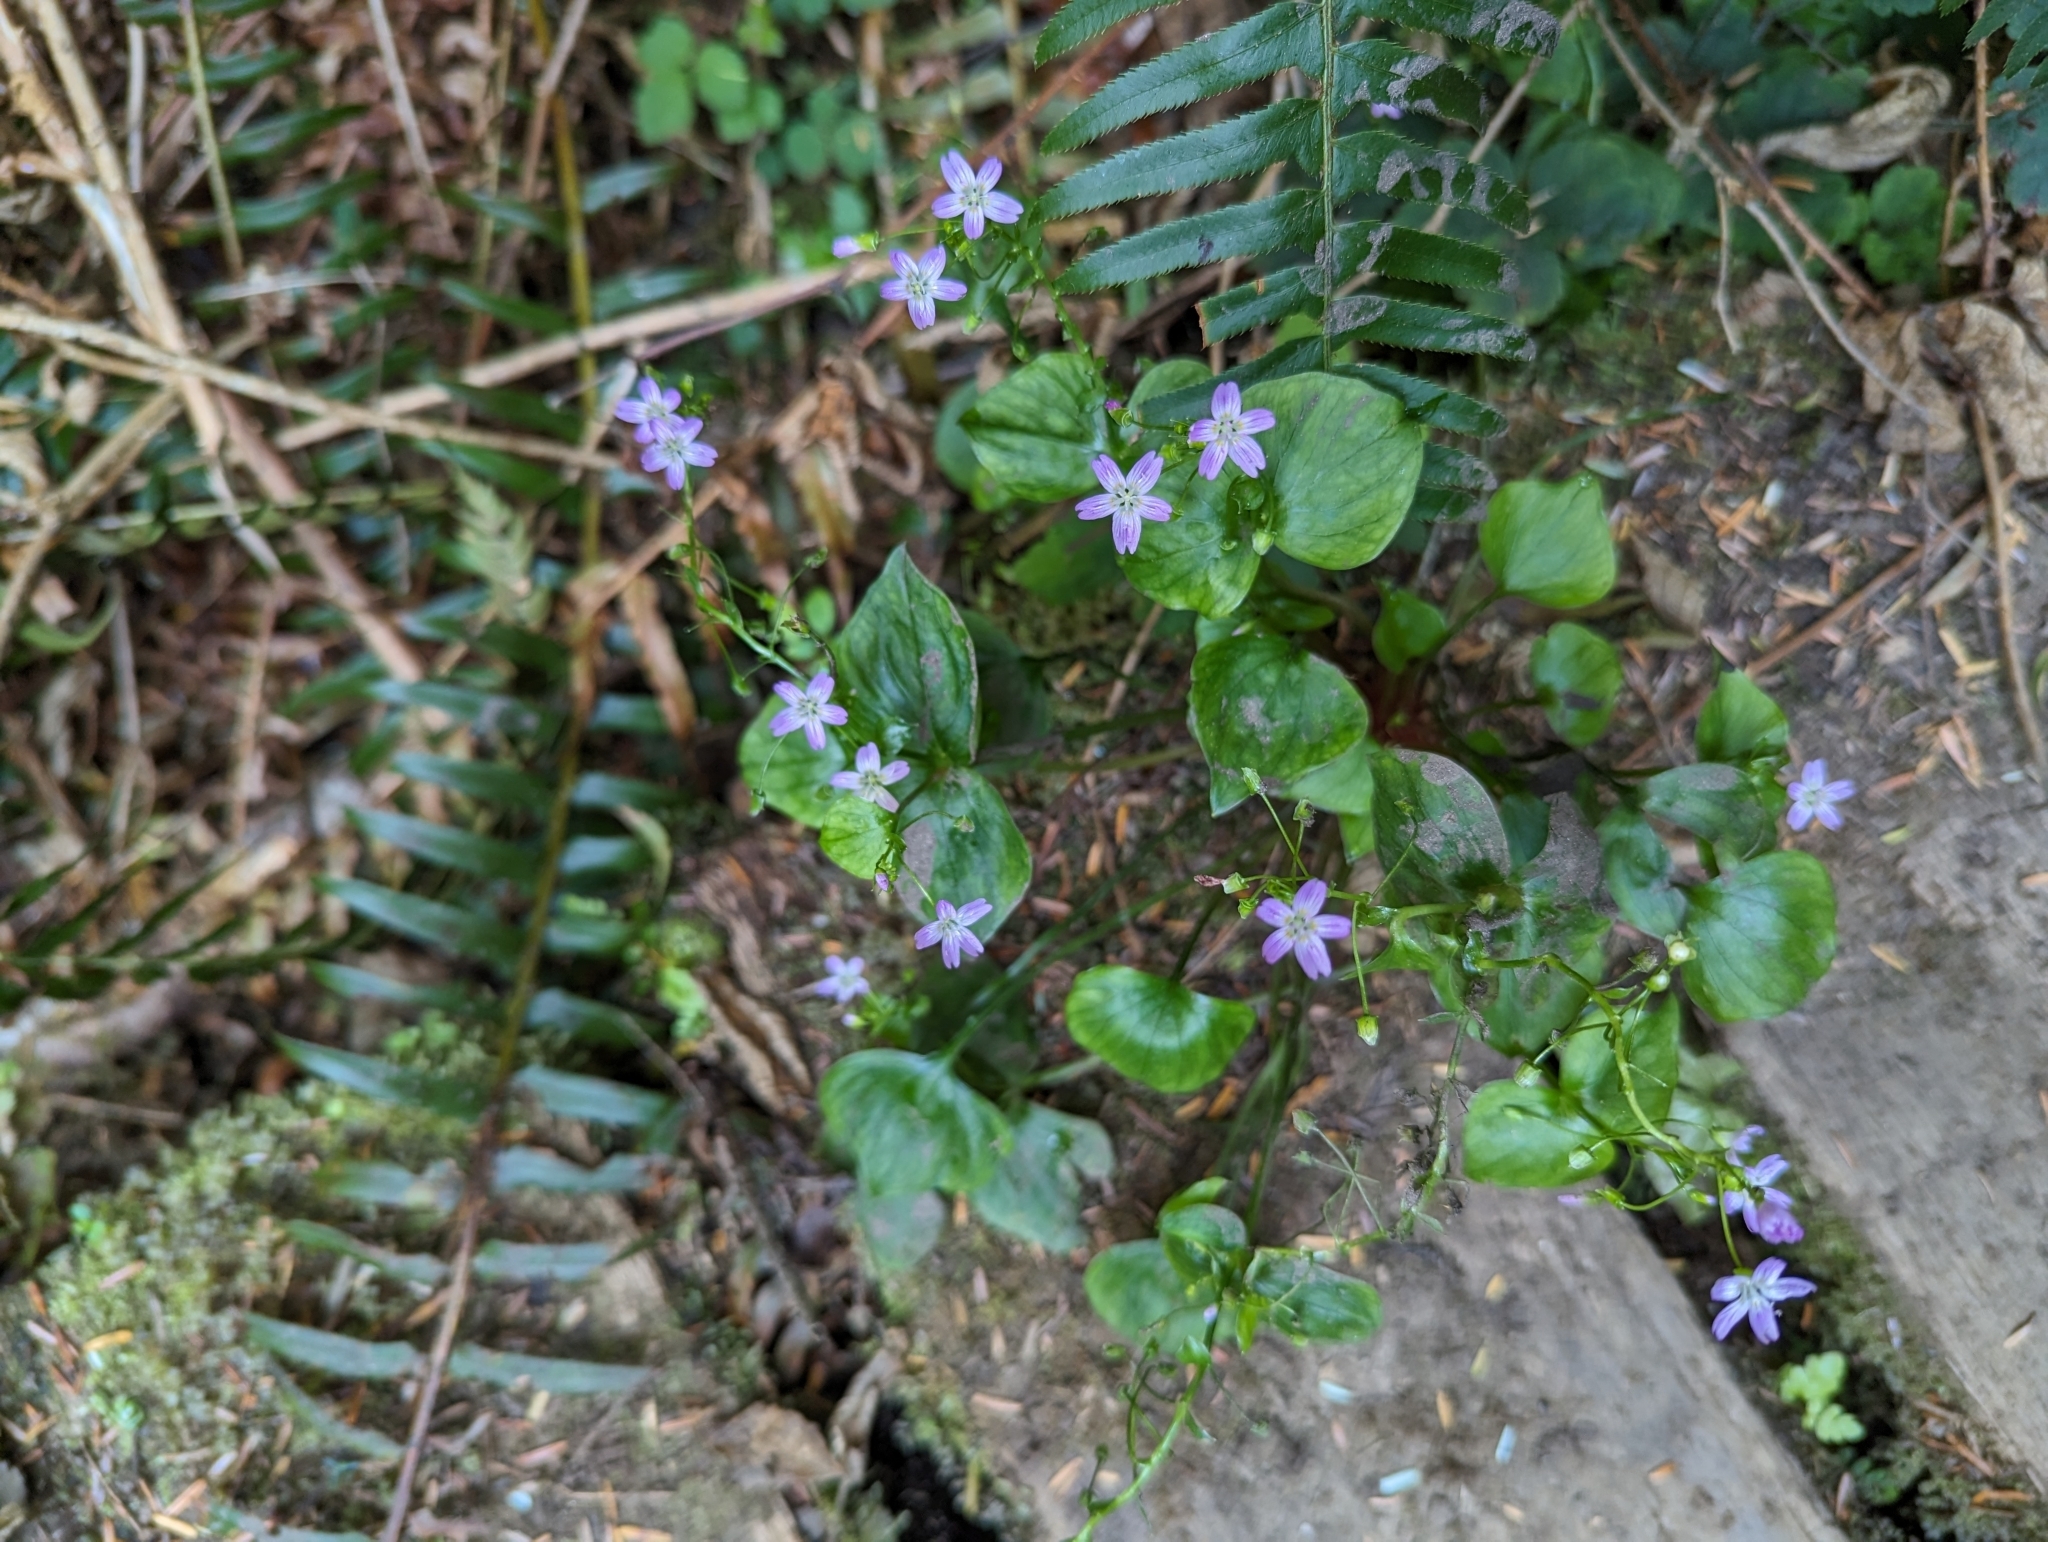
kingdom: Plantae
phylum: Tracheophyta
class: Magnoliopsida
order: Caryophyllales
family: Montiaceae
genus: Claytonia
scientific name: Claytonia sibirica
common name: Pink purslane
